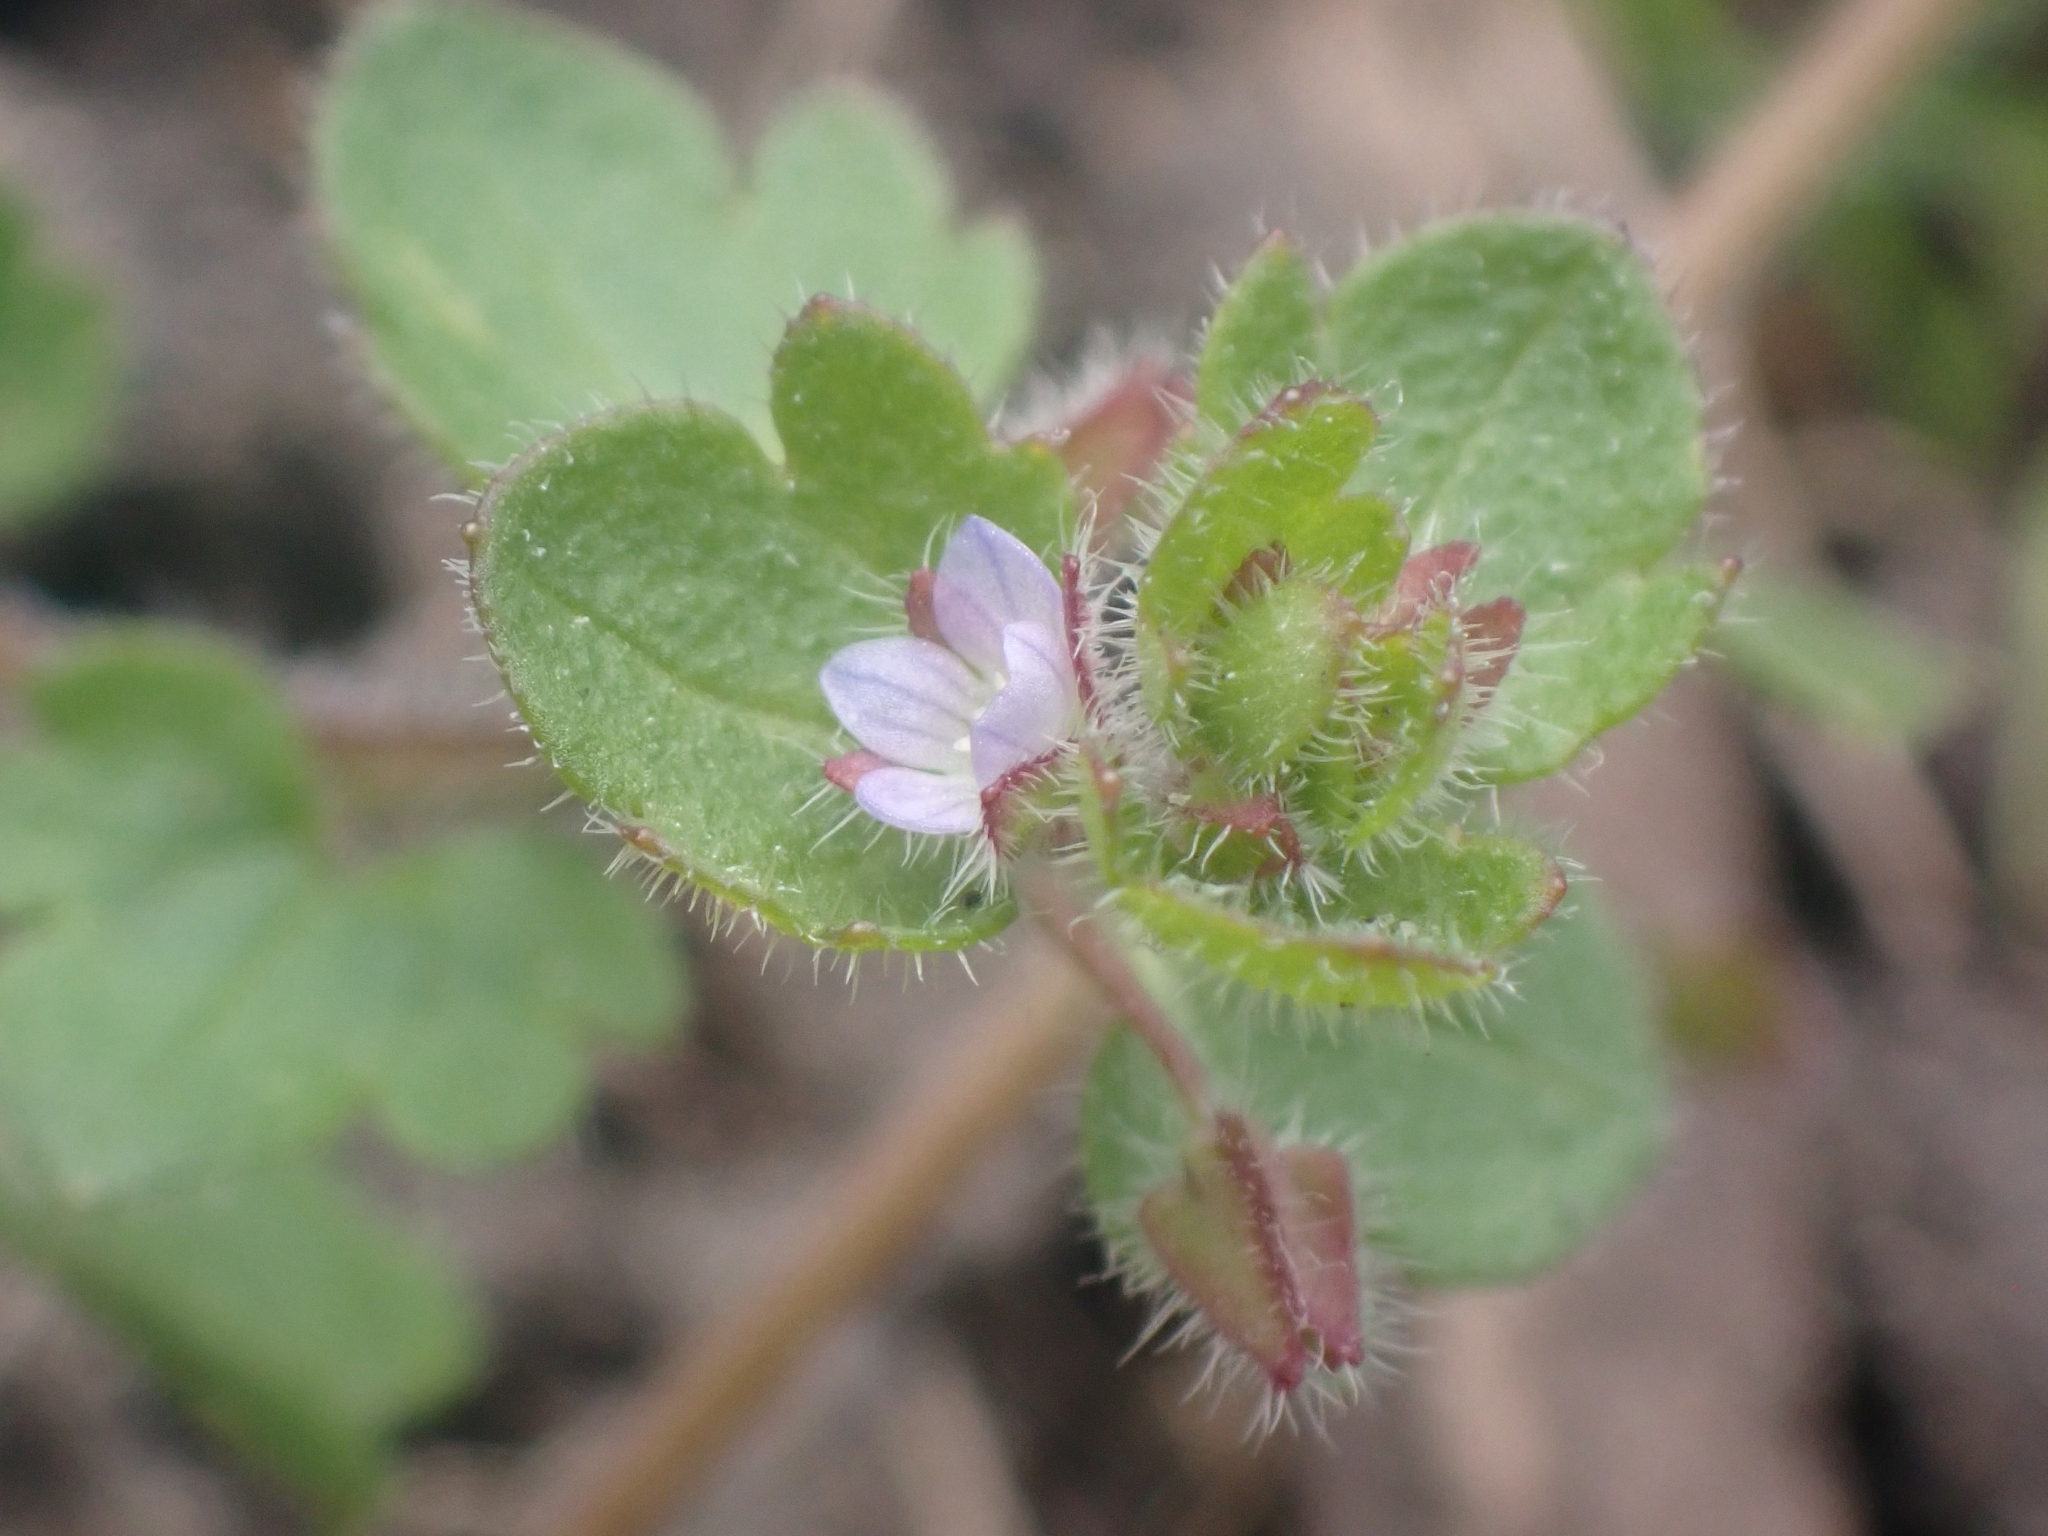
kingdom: Plantae
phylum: Tracheophyta
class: Magnoliopsida
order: Lamiales
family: Plantaginaceae
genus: Veronica
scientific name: Veronica sublobata
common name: False ivy-leaved speedwell
